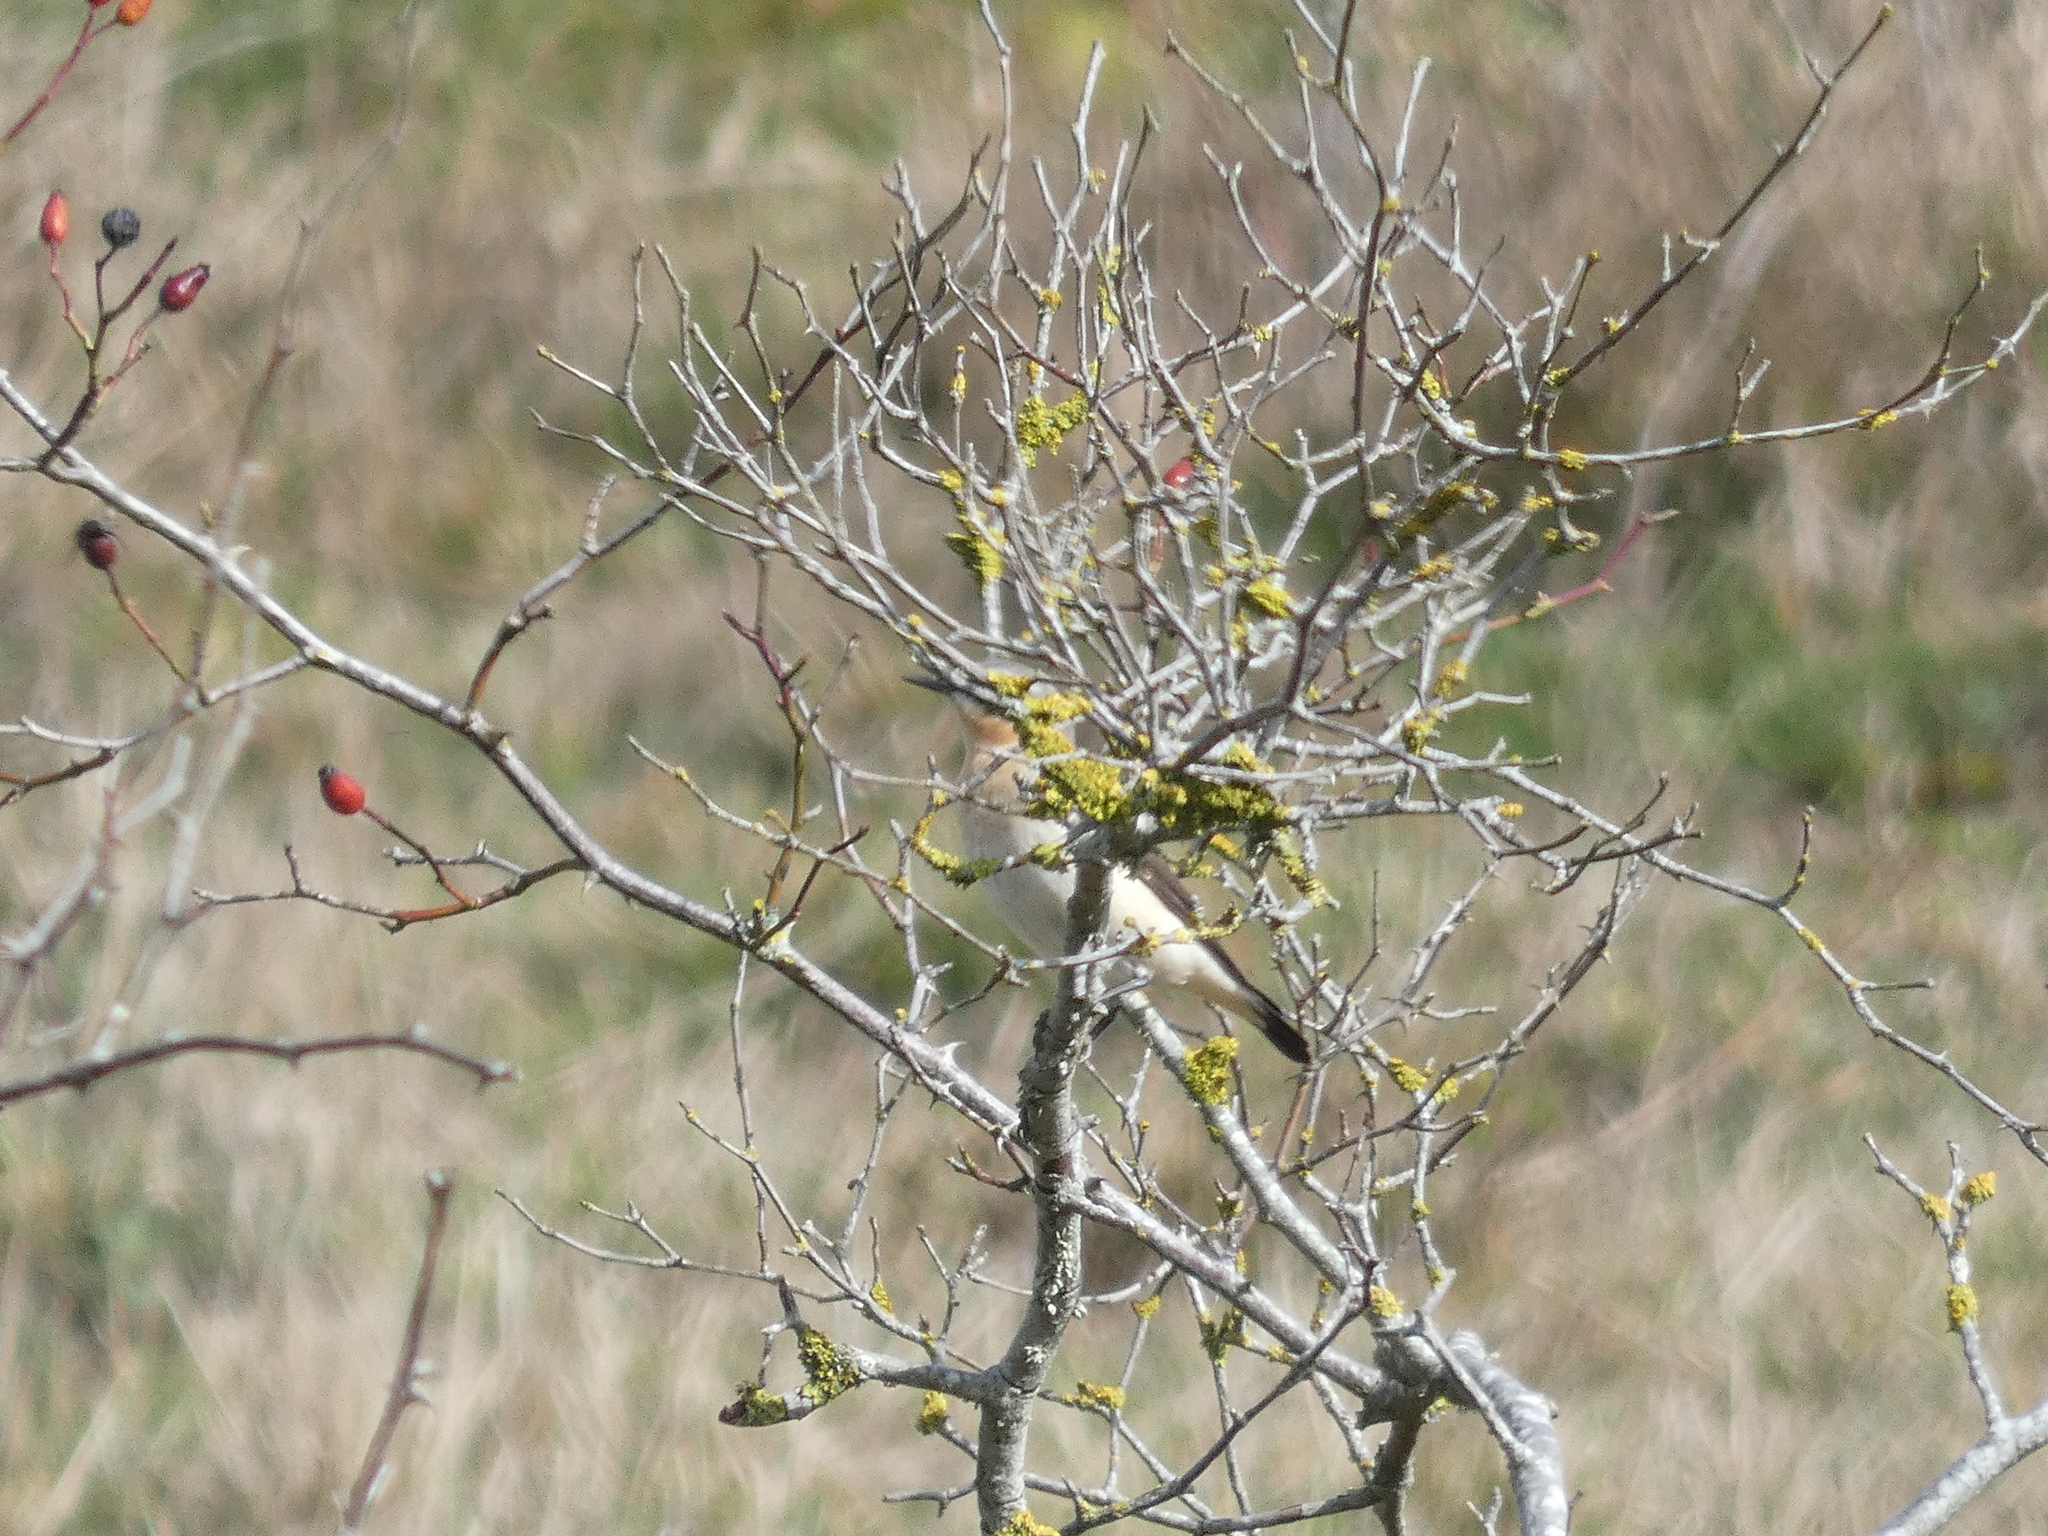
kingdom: Animalia
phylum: Chordata
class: Aves
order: Passeriformes
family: Muscicapidae
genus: Oenanthe
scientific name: Oenanthe oenanthe
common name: Northern wheatear
